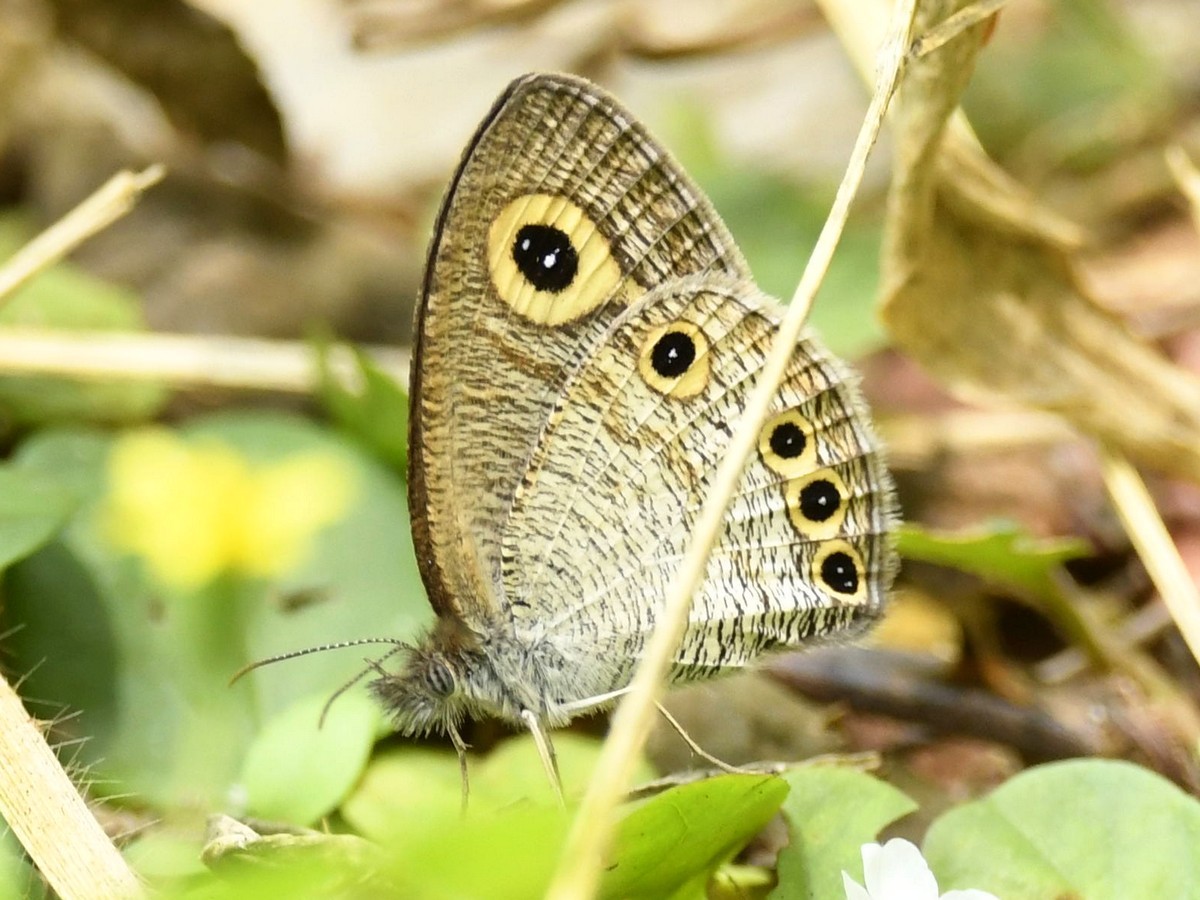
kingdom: Animalia
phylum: Arthropoda
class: Insecta
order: Lepidoptera
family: Nymphalidae
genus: Ypthima
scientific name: Ypthima huebneri
